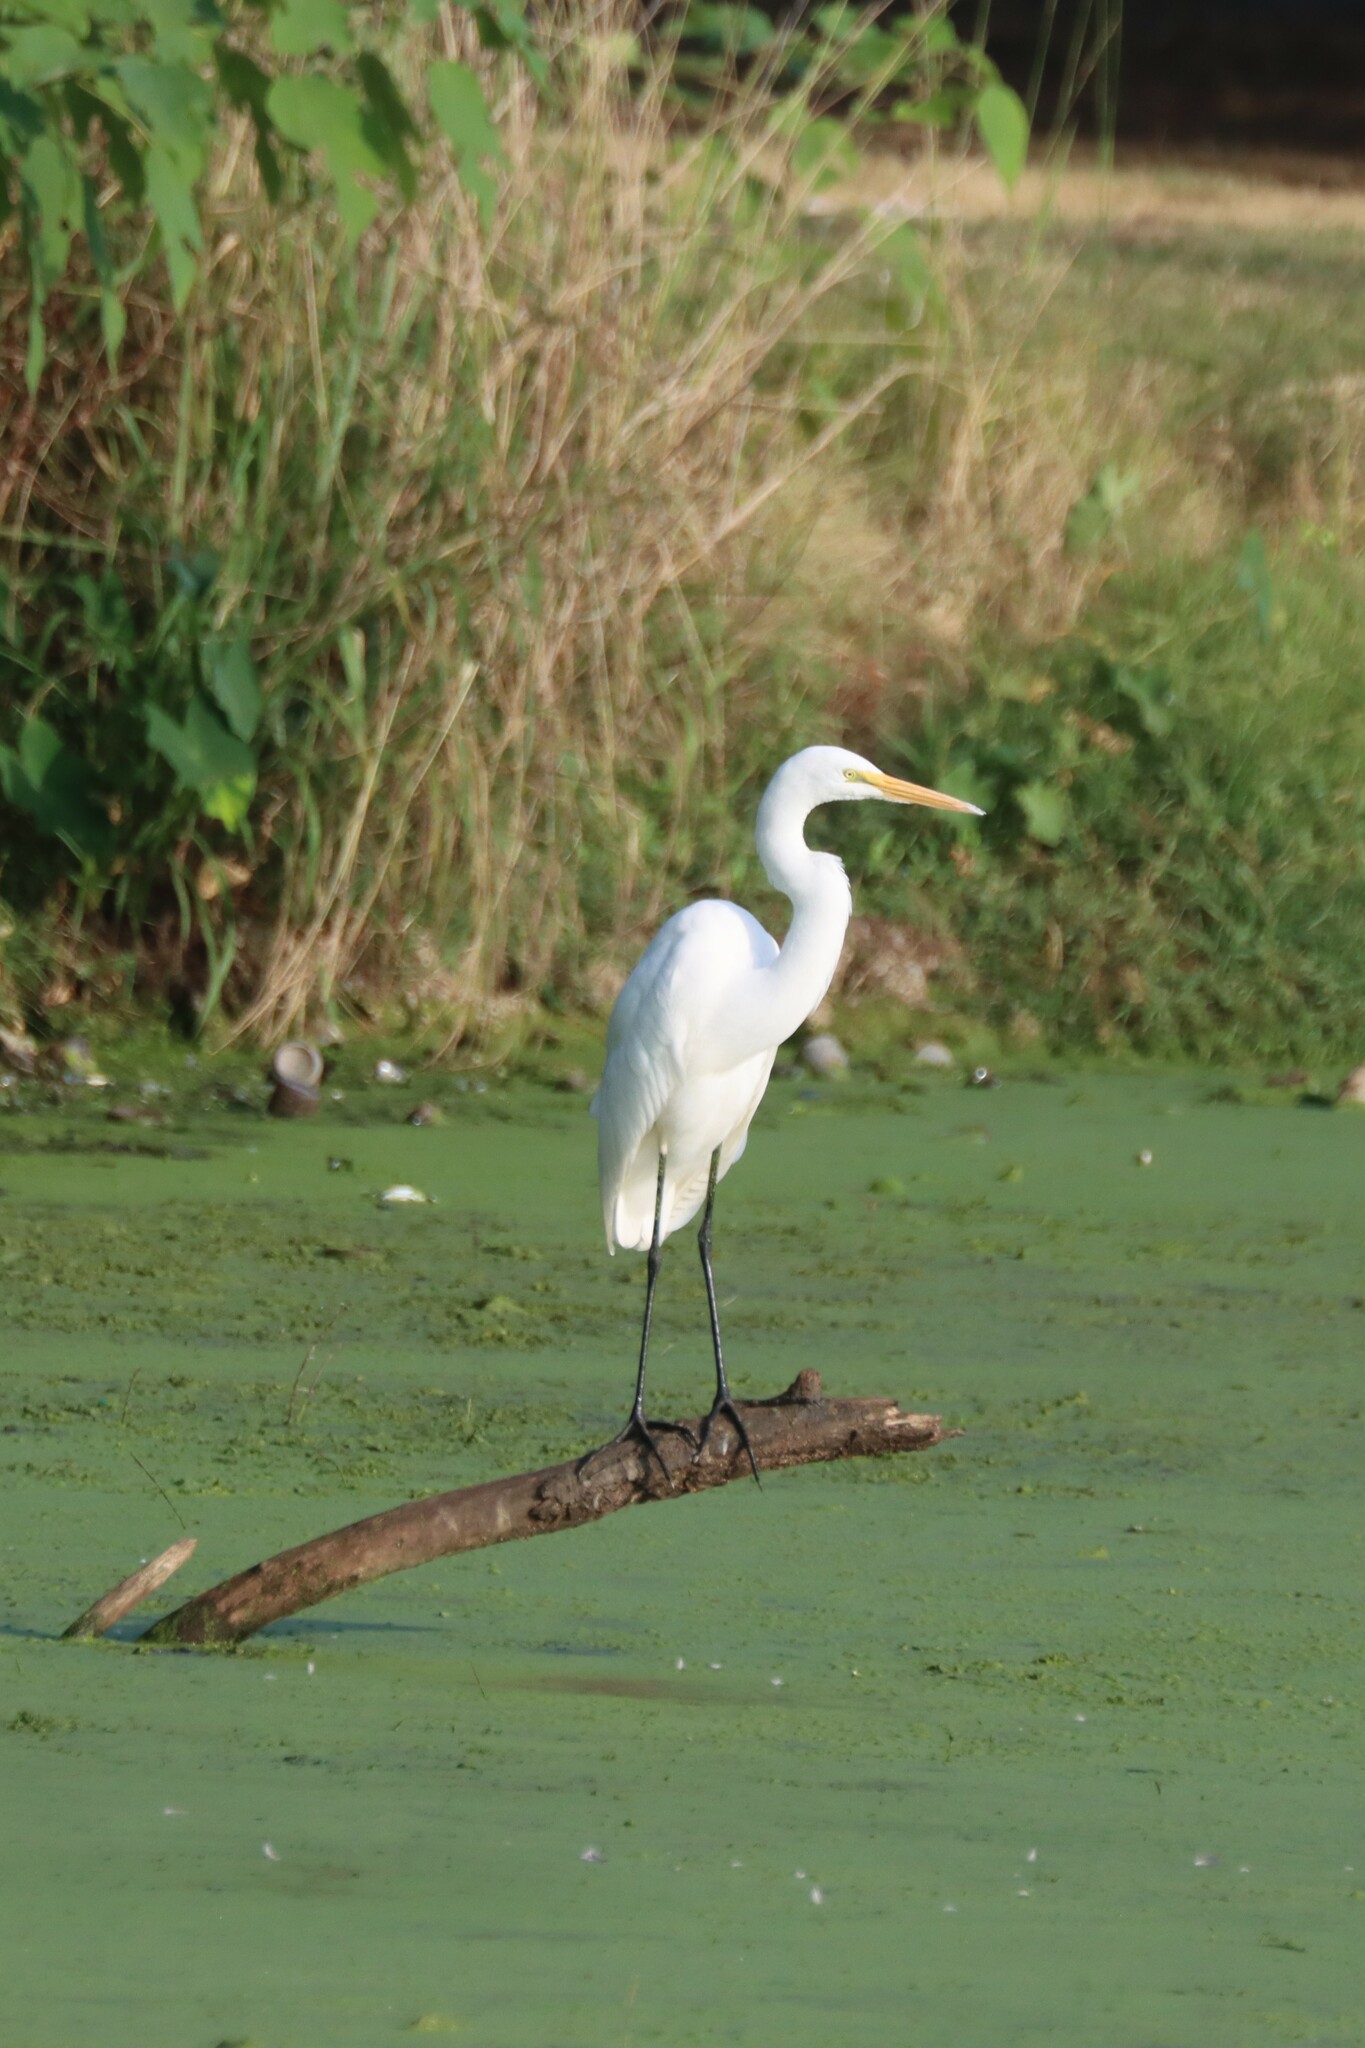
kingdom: Animalia
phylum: Chordata
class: Aves
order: Pelecaniformes
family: Ardeidae
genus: Ardea
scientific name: Ardea alba
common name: Great egret
